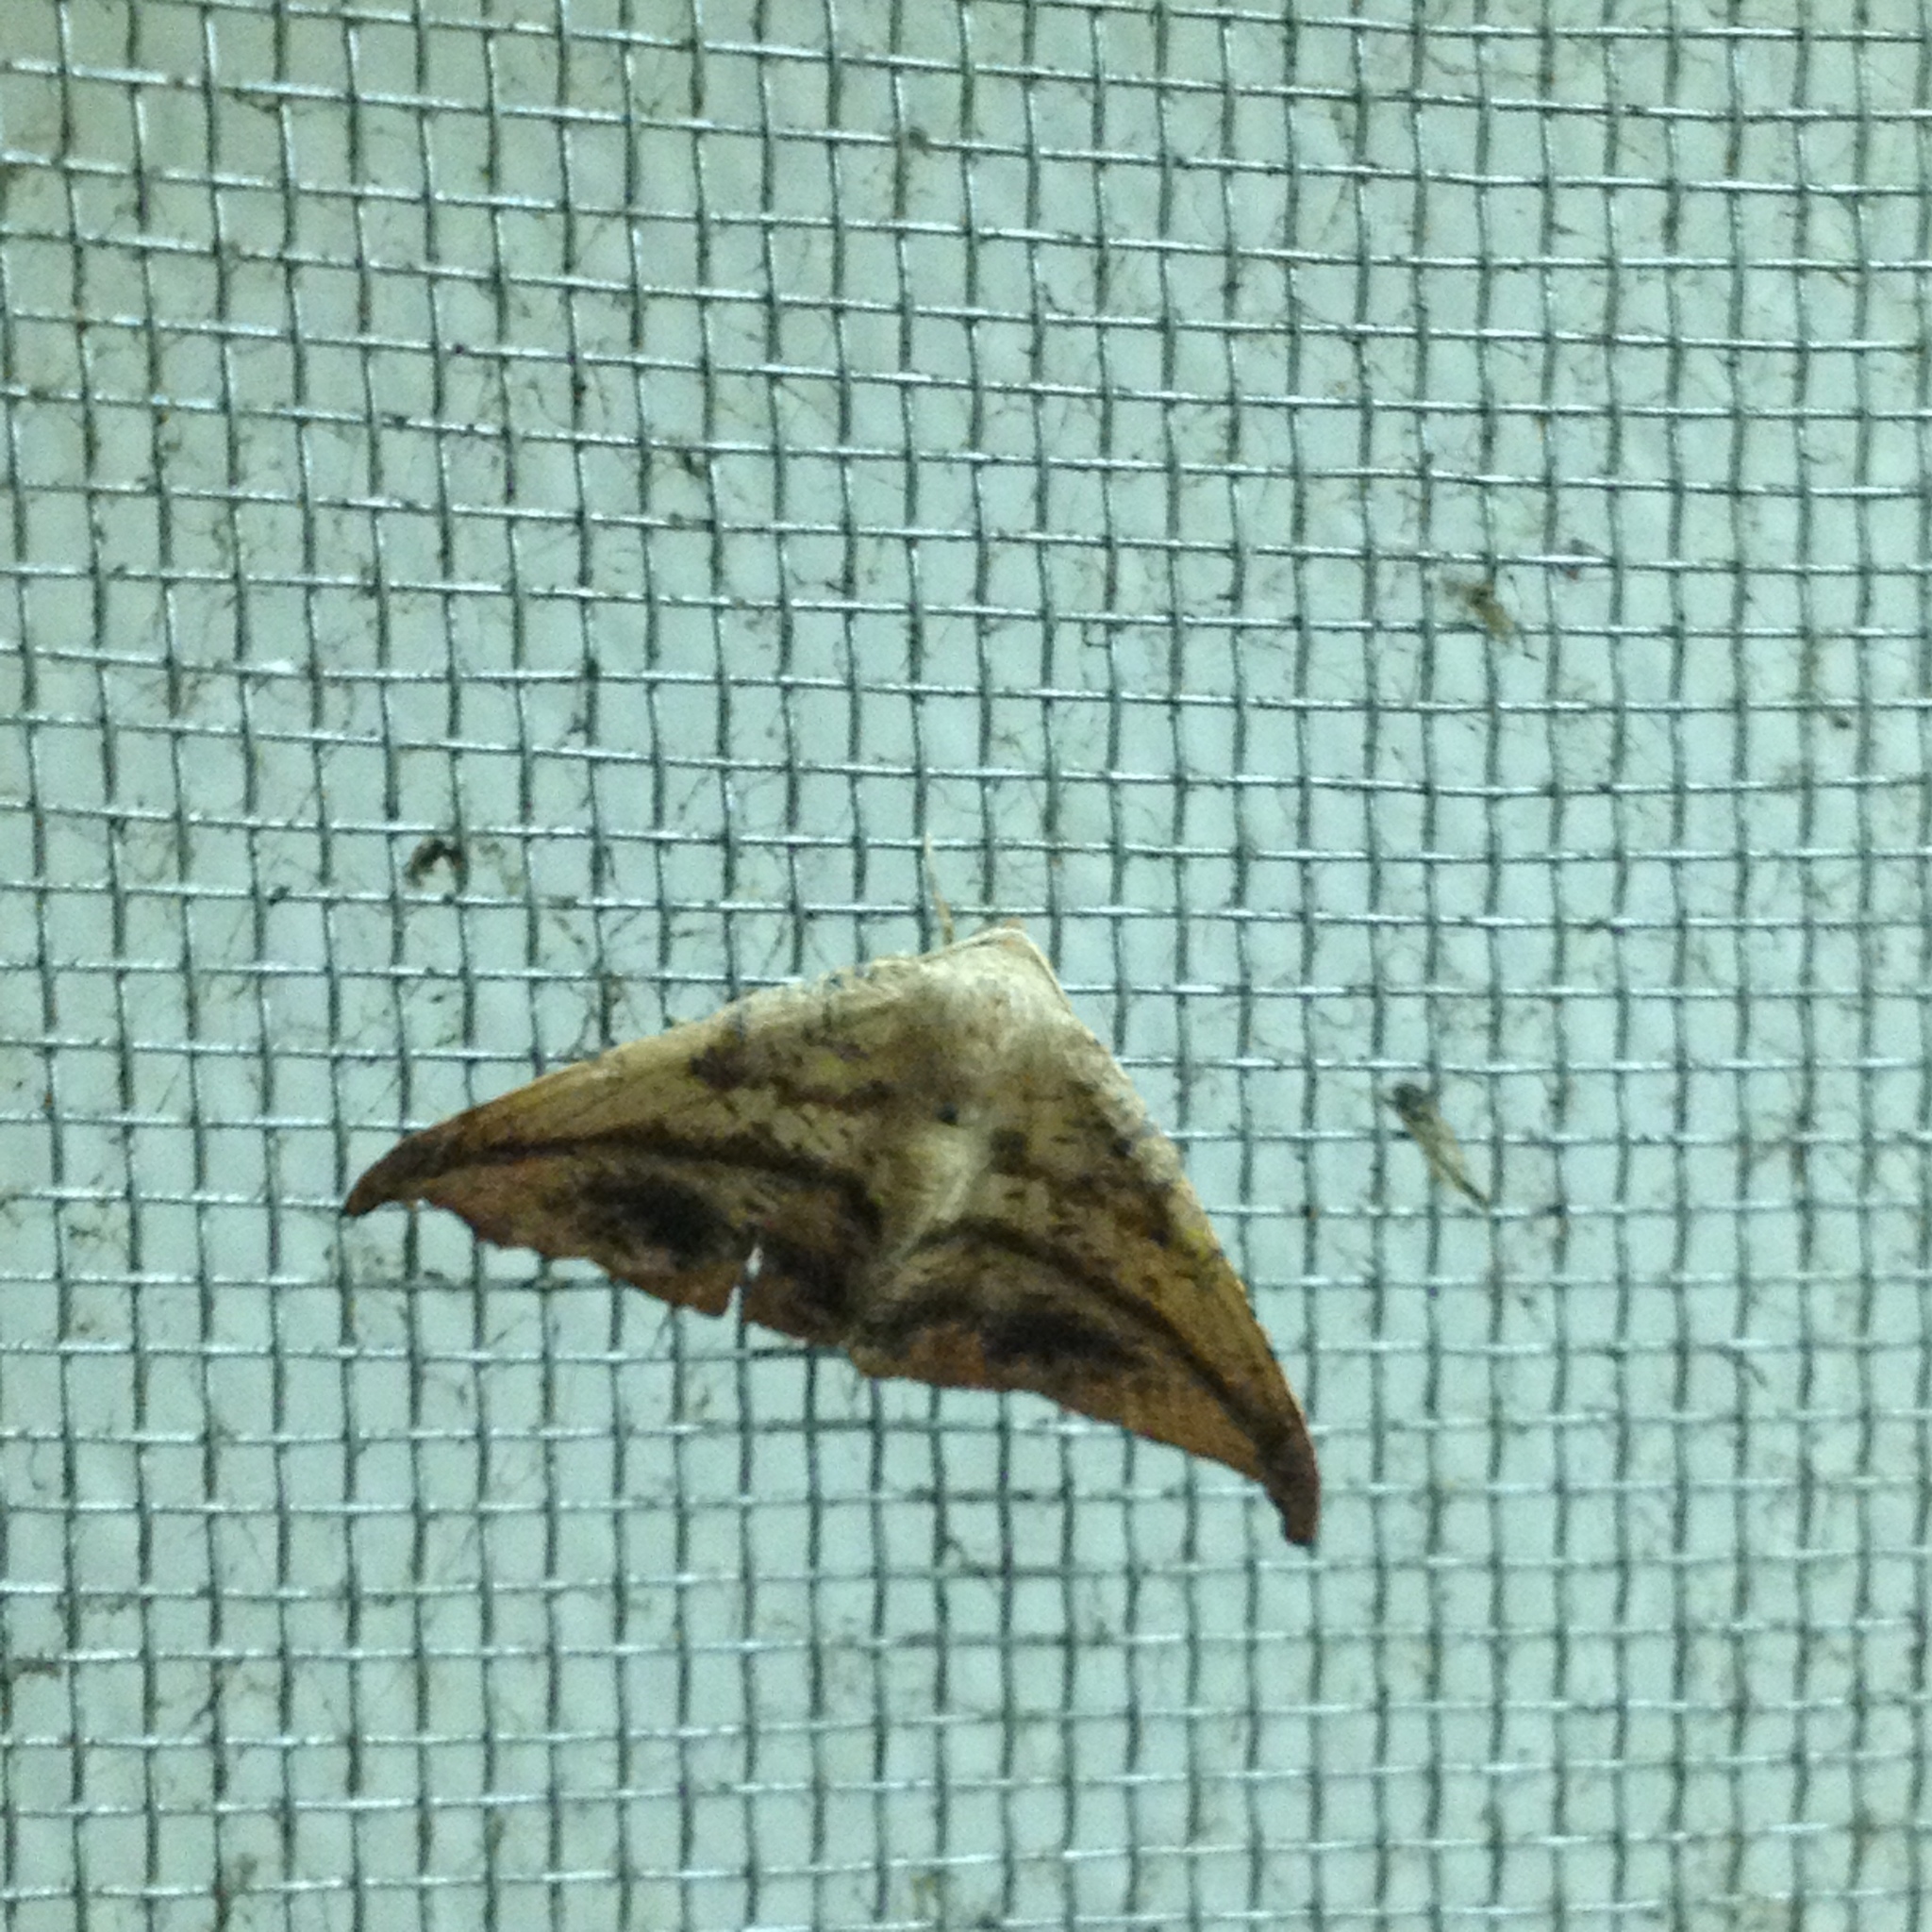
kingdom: Animalia
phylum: Arthropoda
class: Insecta
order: Lepidoptera
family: Geometridae
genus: Patalene
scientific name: Patalene olyzonaria
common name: Juniper geometer moth
